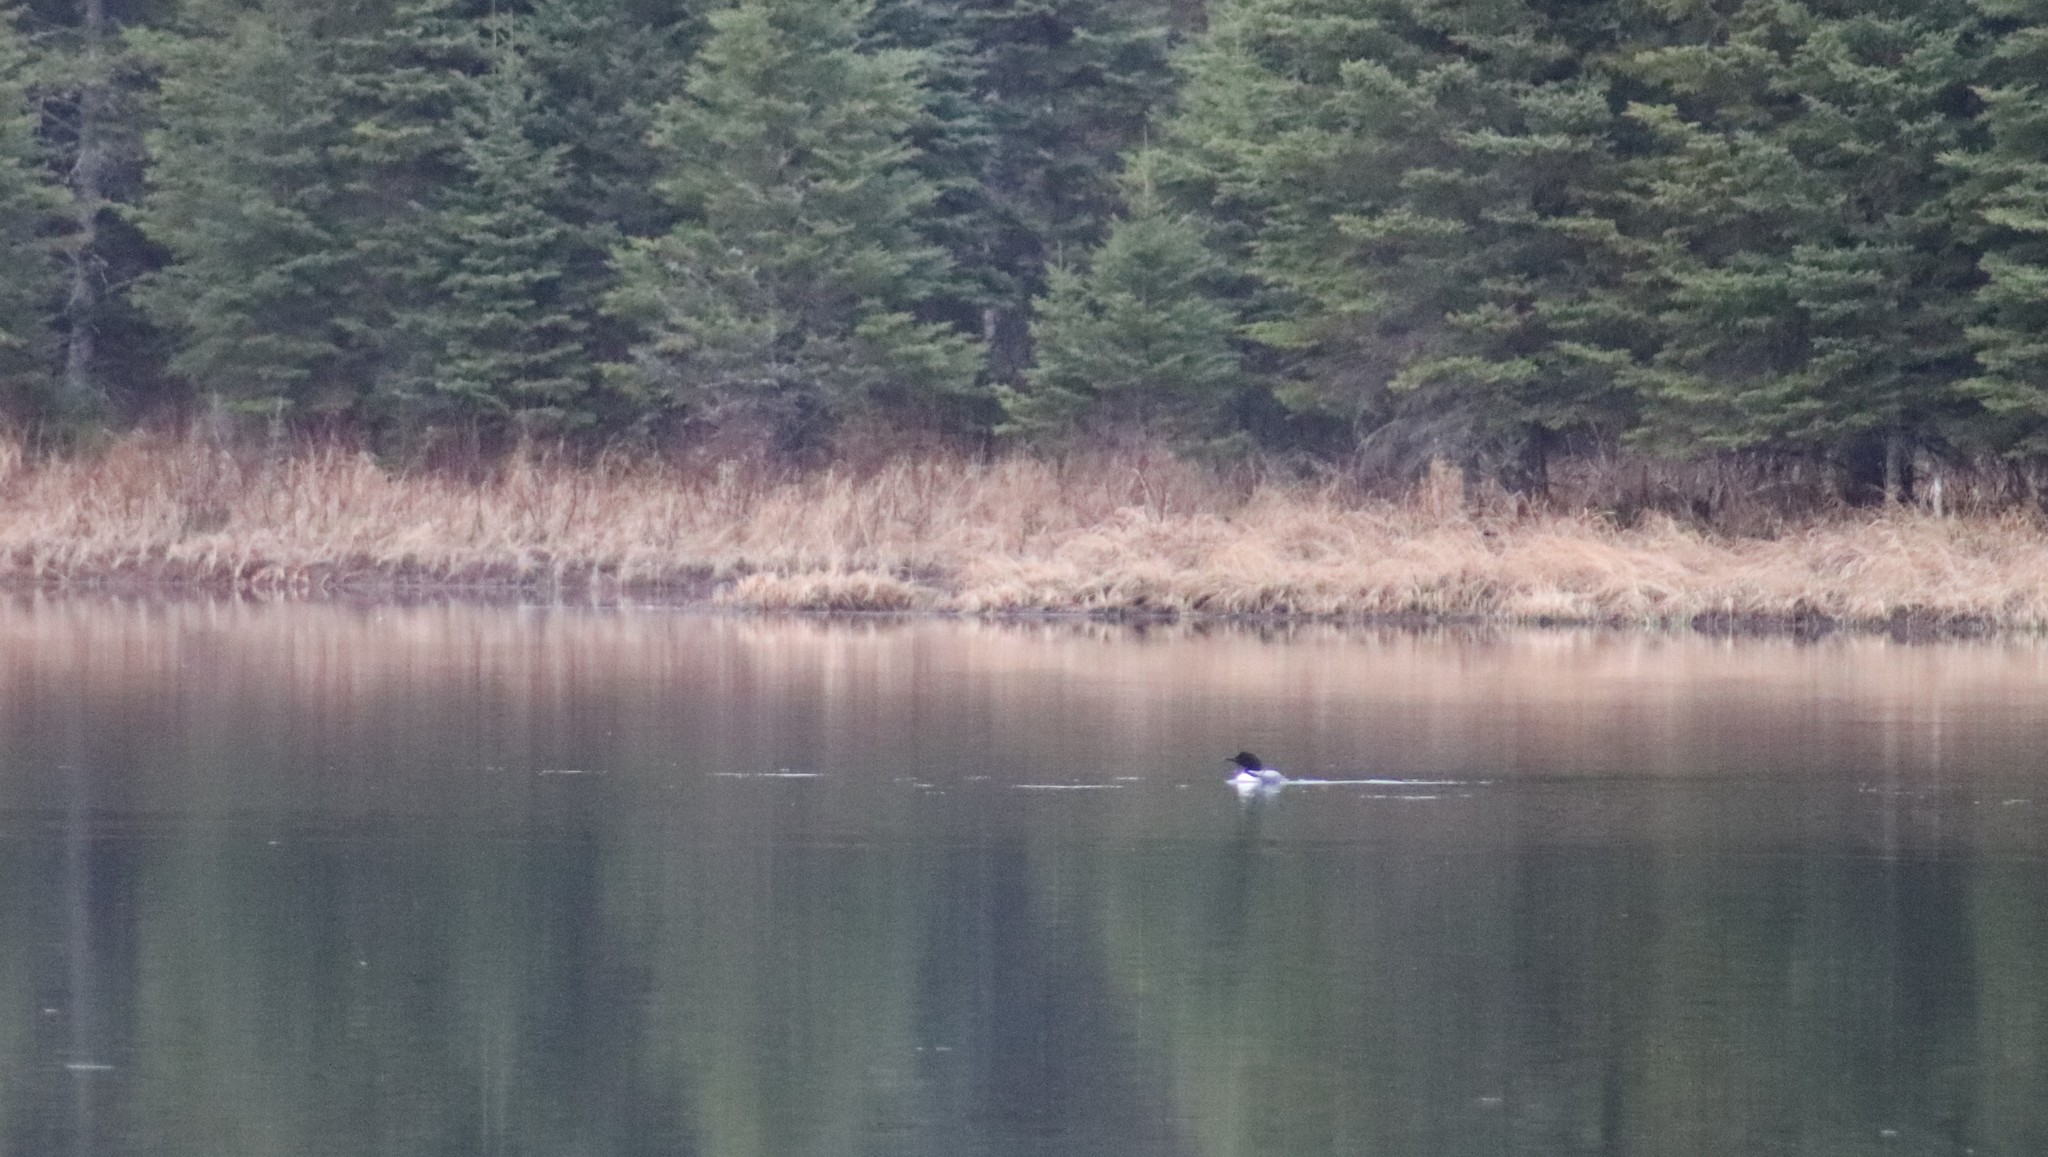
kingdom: Animalia
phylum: Chordata
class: Aves
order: Gaviiformes
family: Gaviidae
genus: Gavia
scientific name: Gavia immer
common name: Common loon
